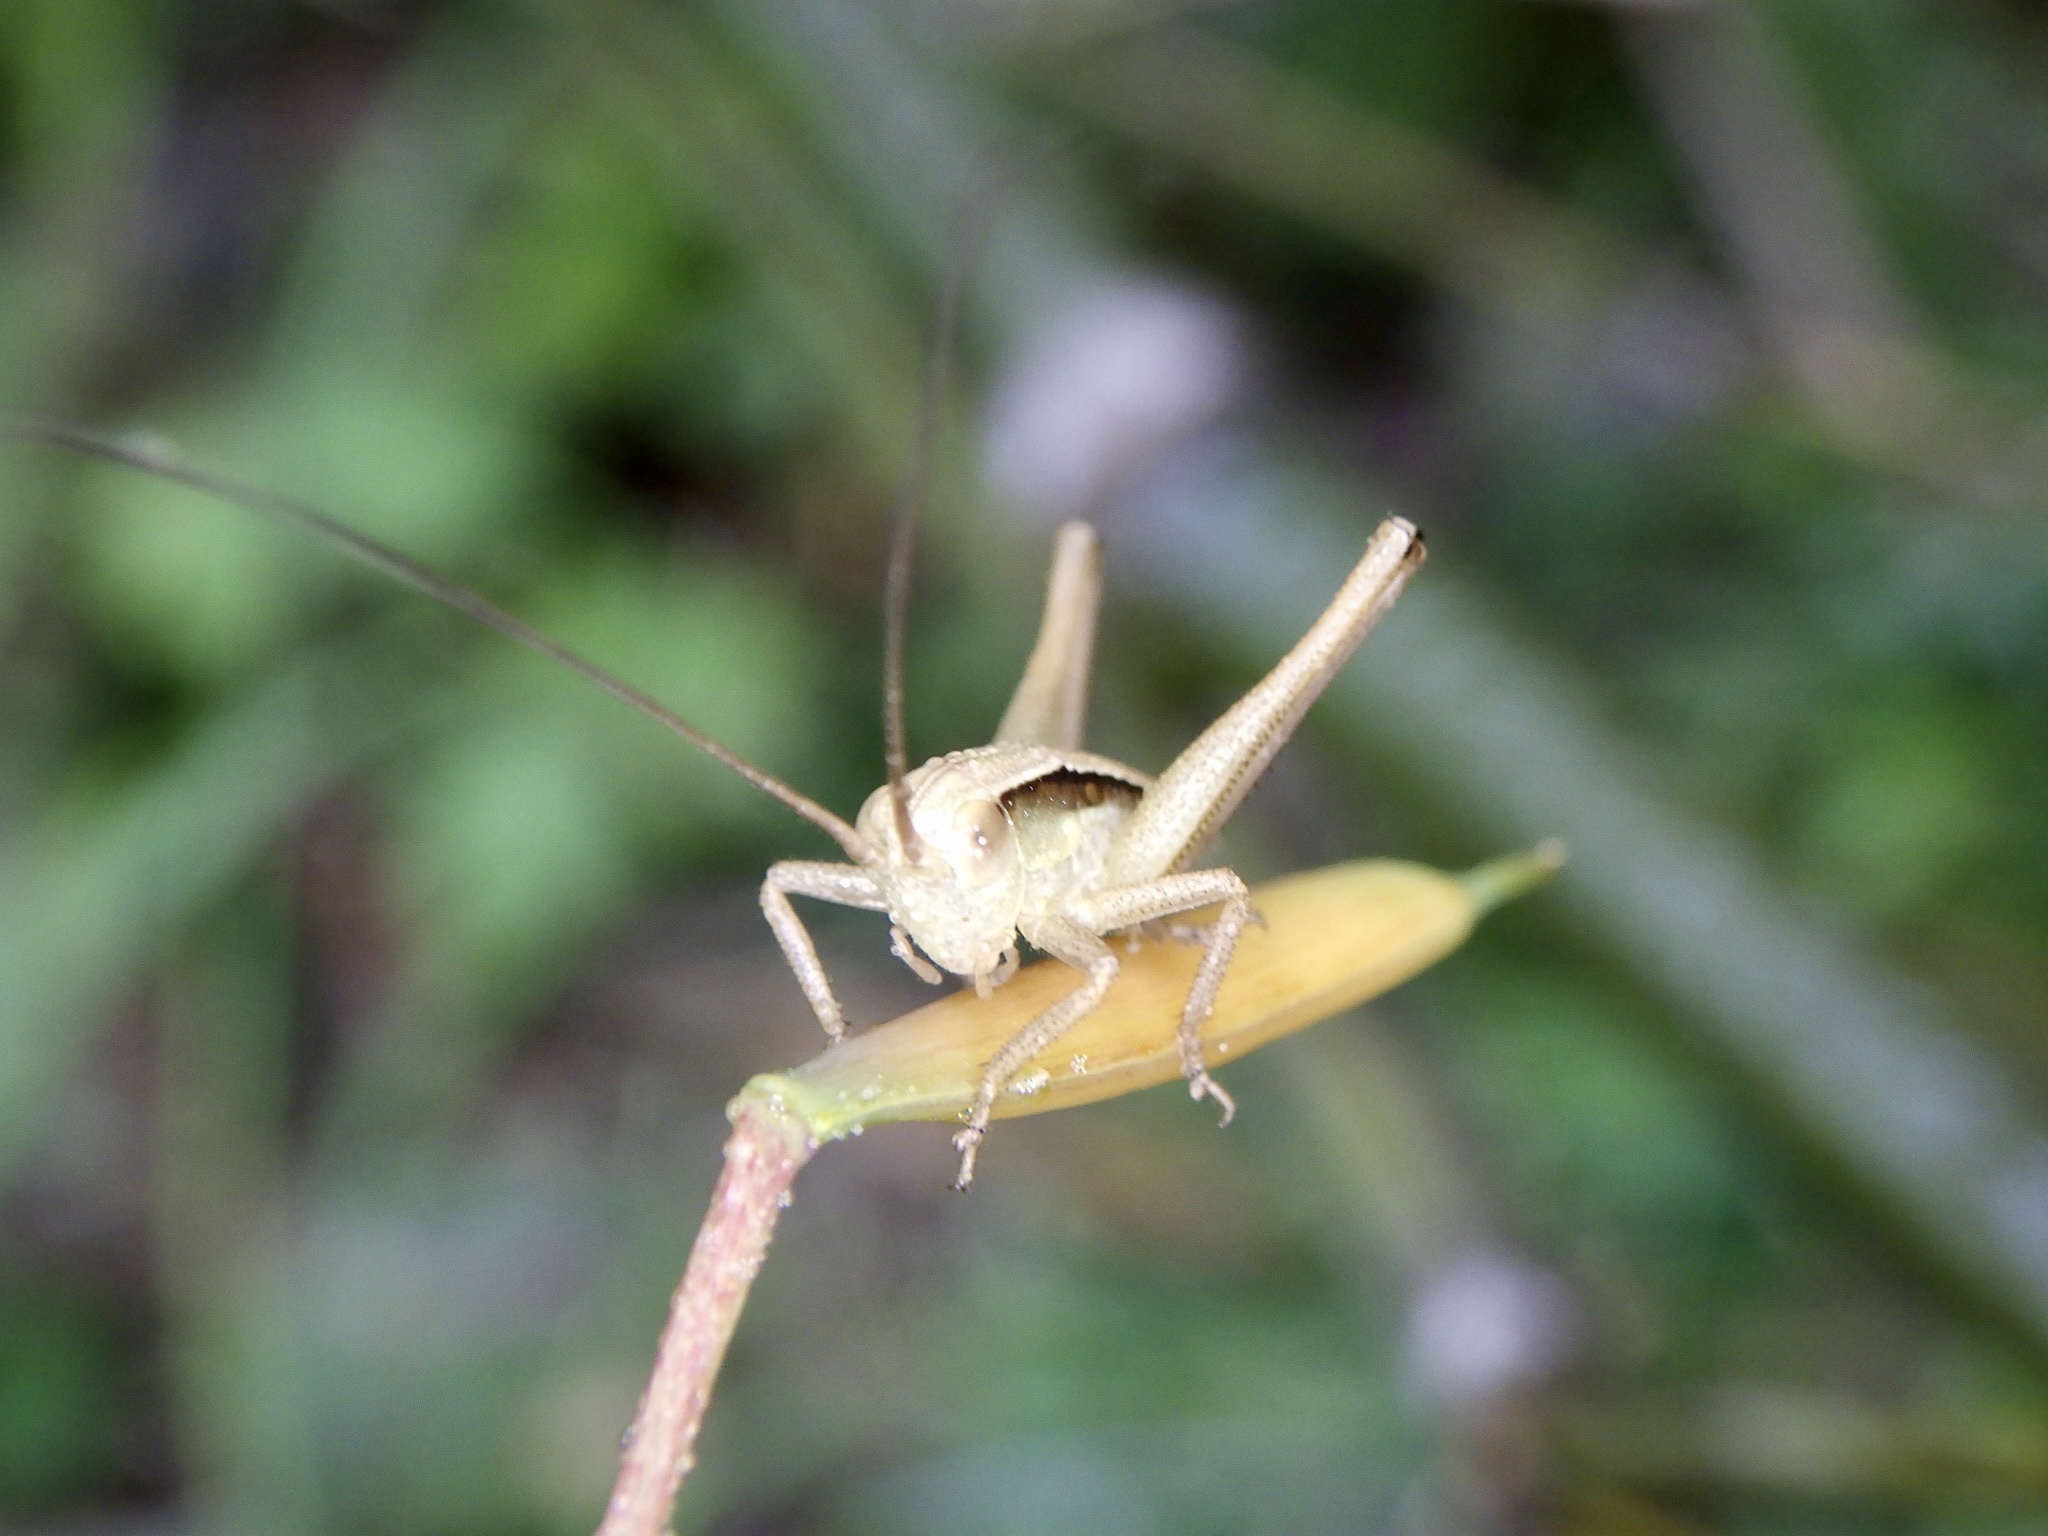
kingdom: Animalia
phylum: Arthropoda
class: Insecta
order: Orthoptera
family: Tettigoniidae
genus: Gampsocleis
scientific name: Gampsocleis buergeri
